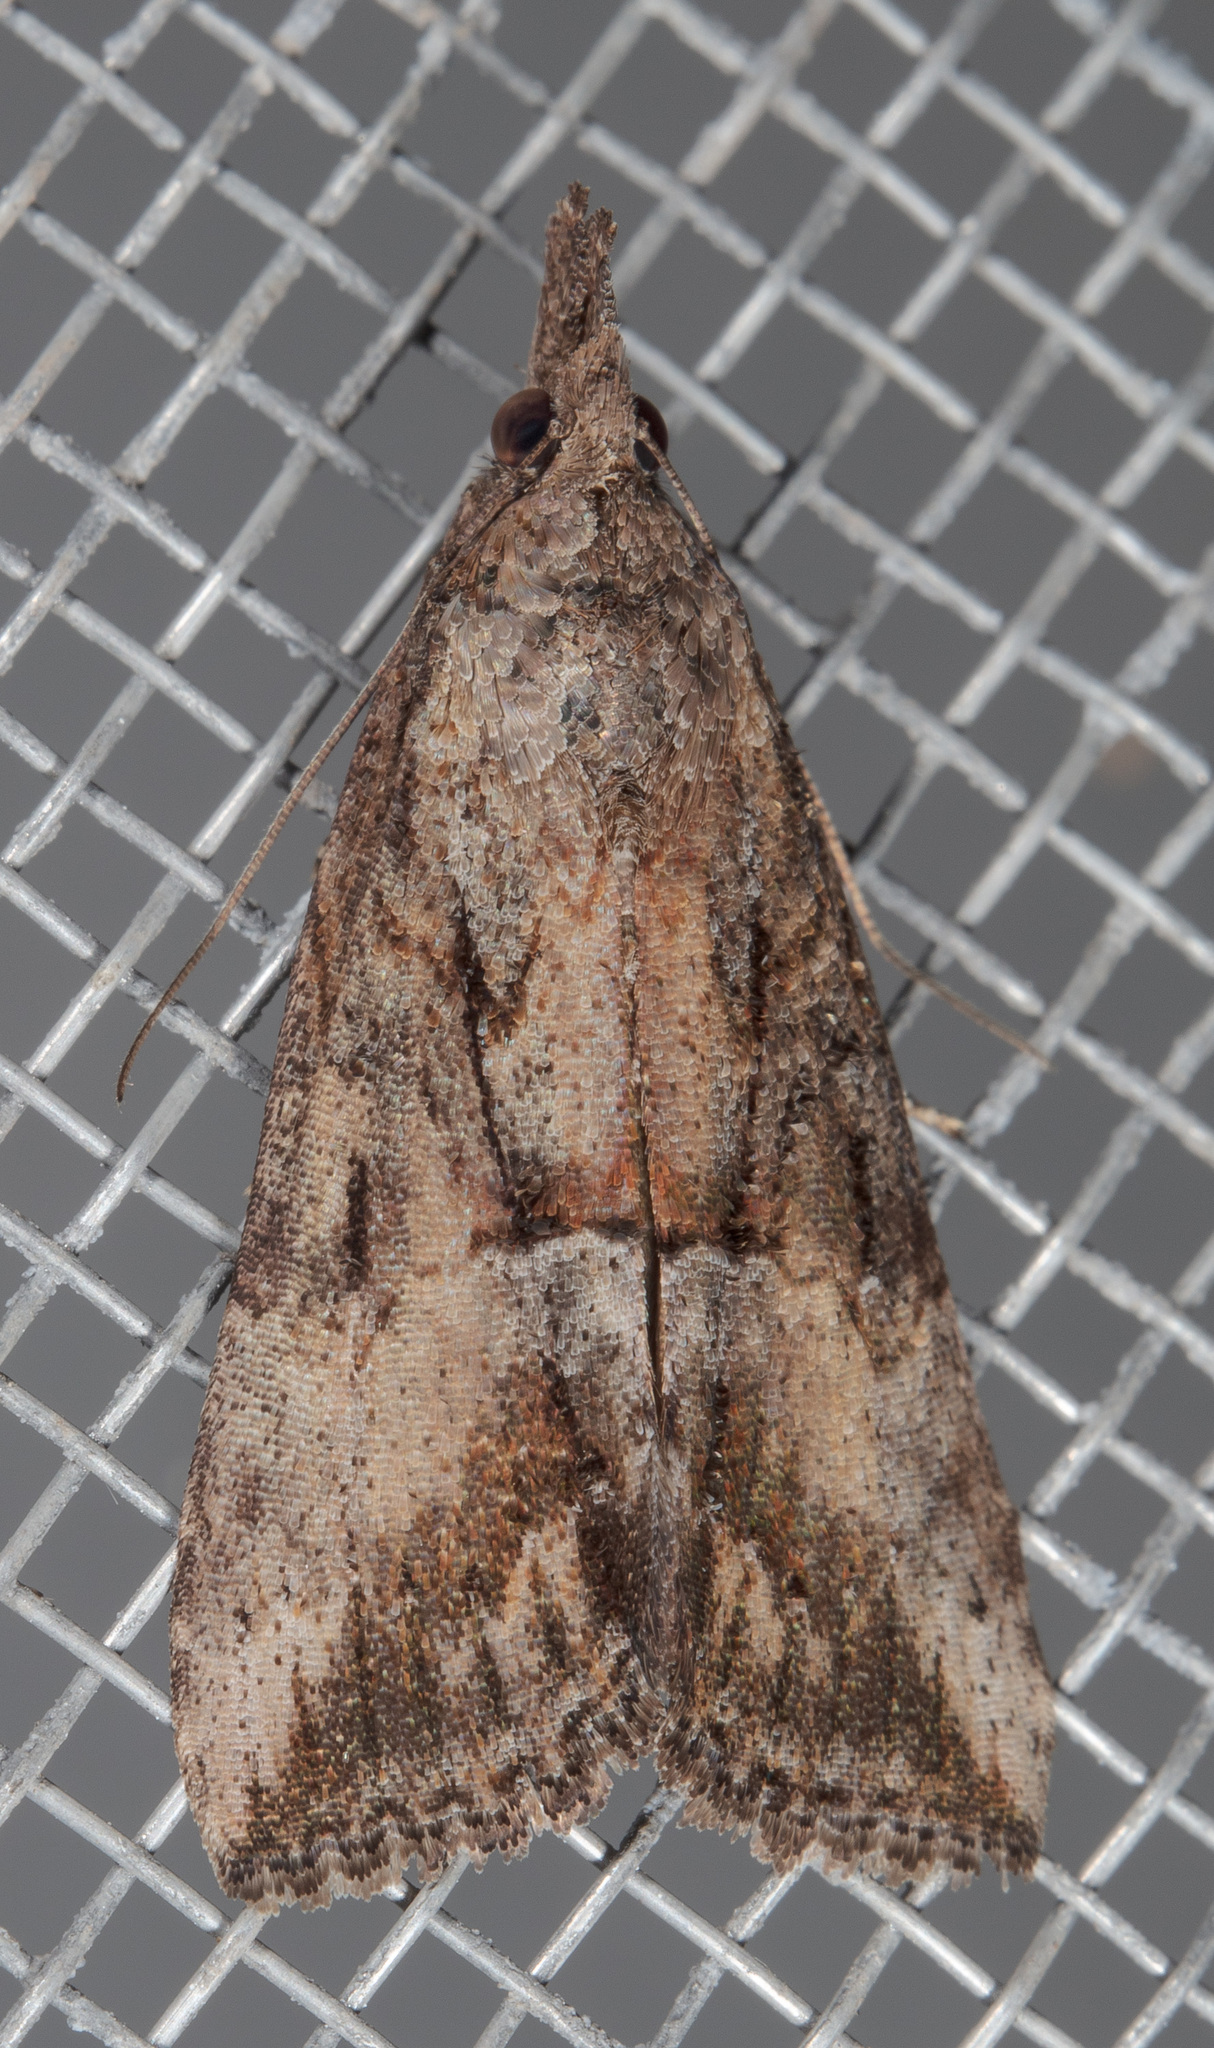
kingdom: Animalia
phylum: Arthropoda
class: Insecta
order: Lepidoptera
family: Erebidae
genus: Hypena
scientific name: Hypena scabra
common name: Green cloverworm
